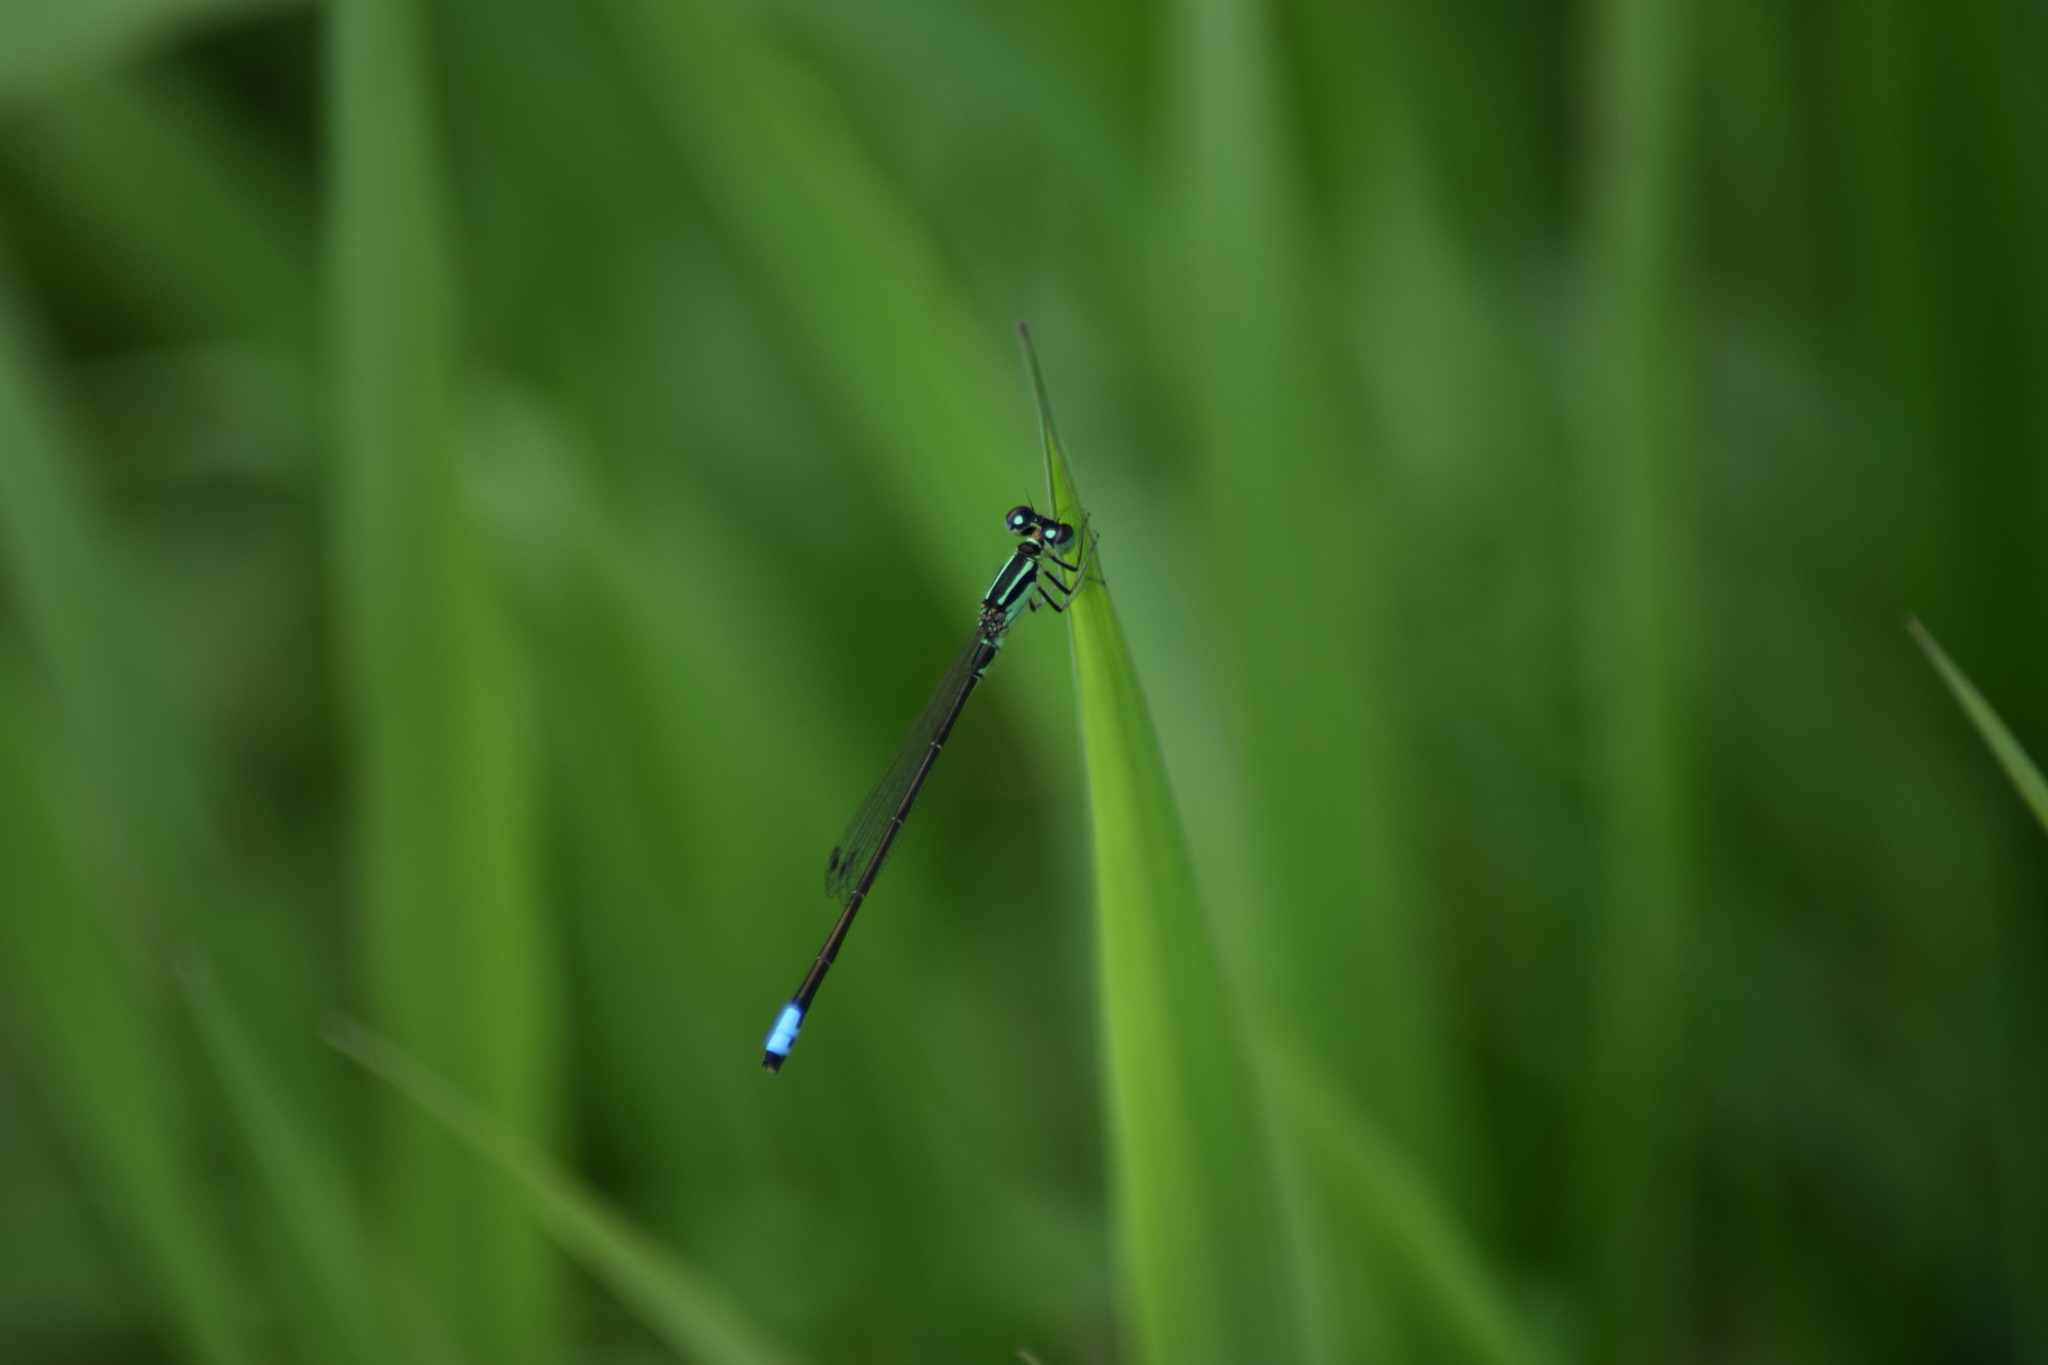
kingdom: Animalia
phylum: Arthropoda
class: Insecta
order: Odonata
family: Coenagrionidae
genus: Ischnura
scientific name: Ischnura verticalis
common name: Eastern forktail
